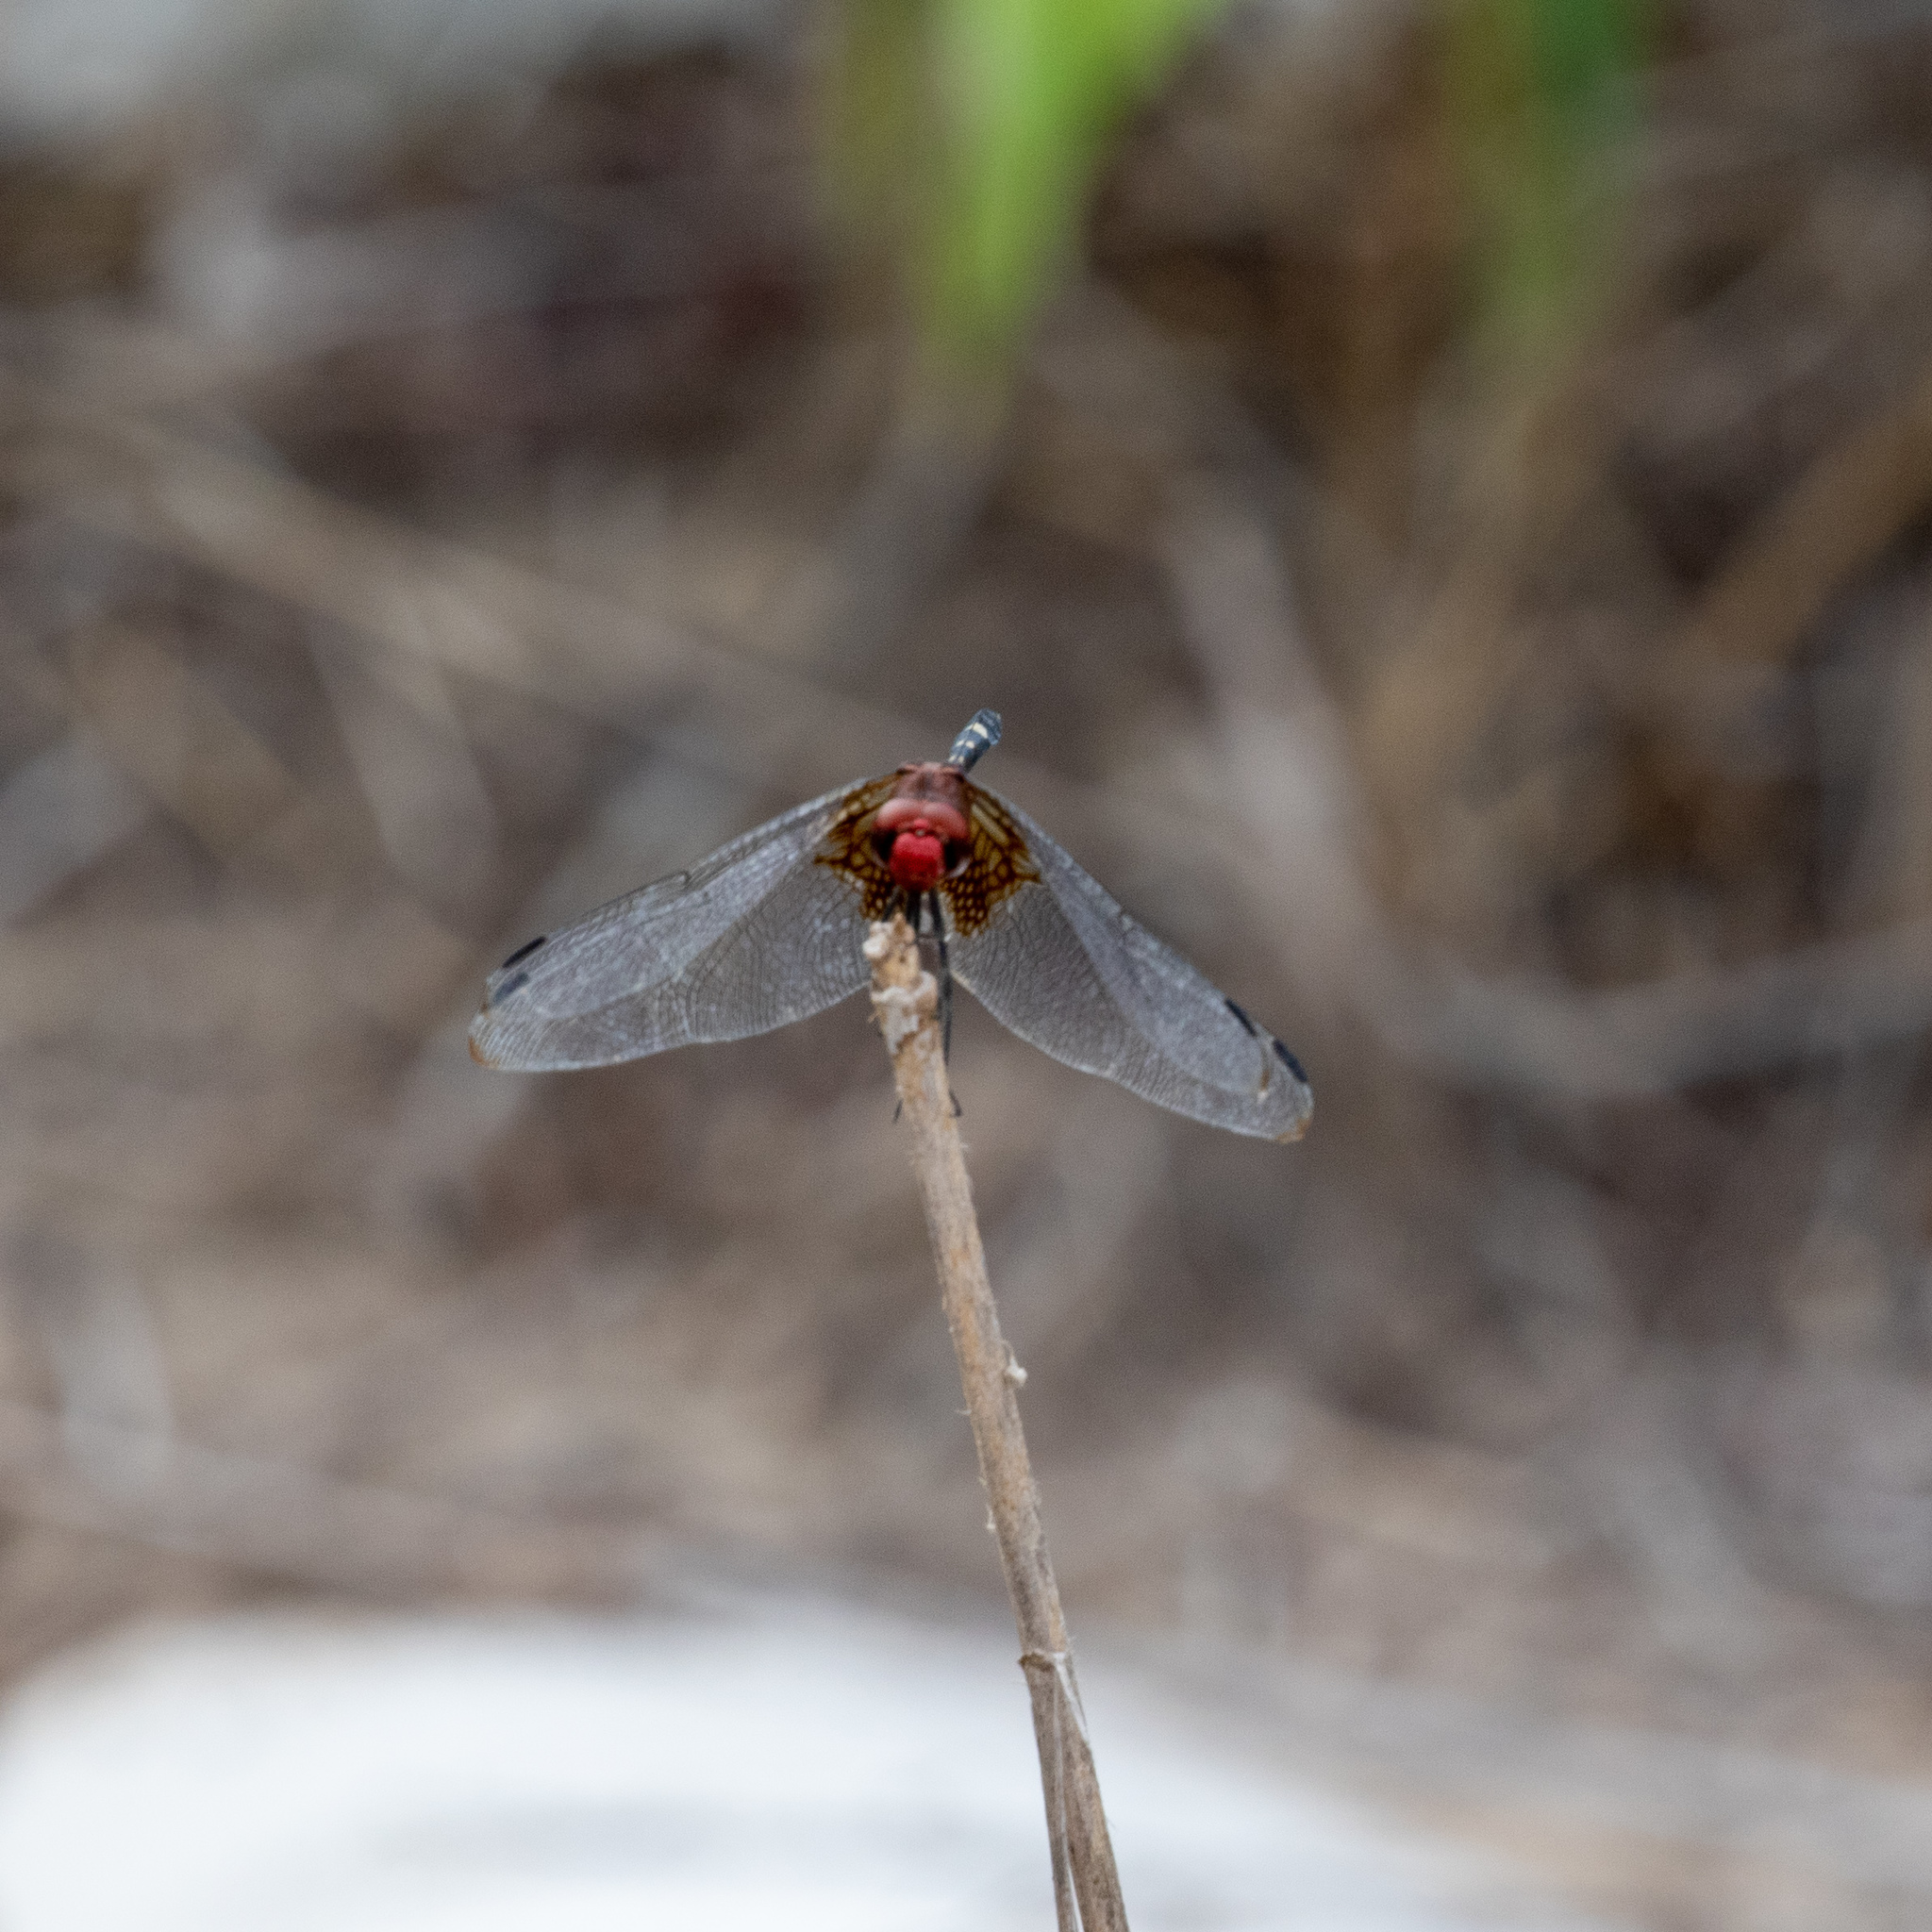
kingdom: Animalia
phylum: Arthropoda
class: Insecta
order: Odonata
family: Libellulidae
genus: Dythemis
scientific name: Dythemis fugax
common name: Checkered setwing
